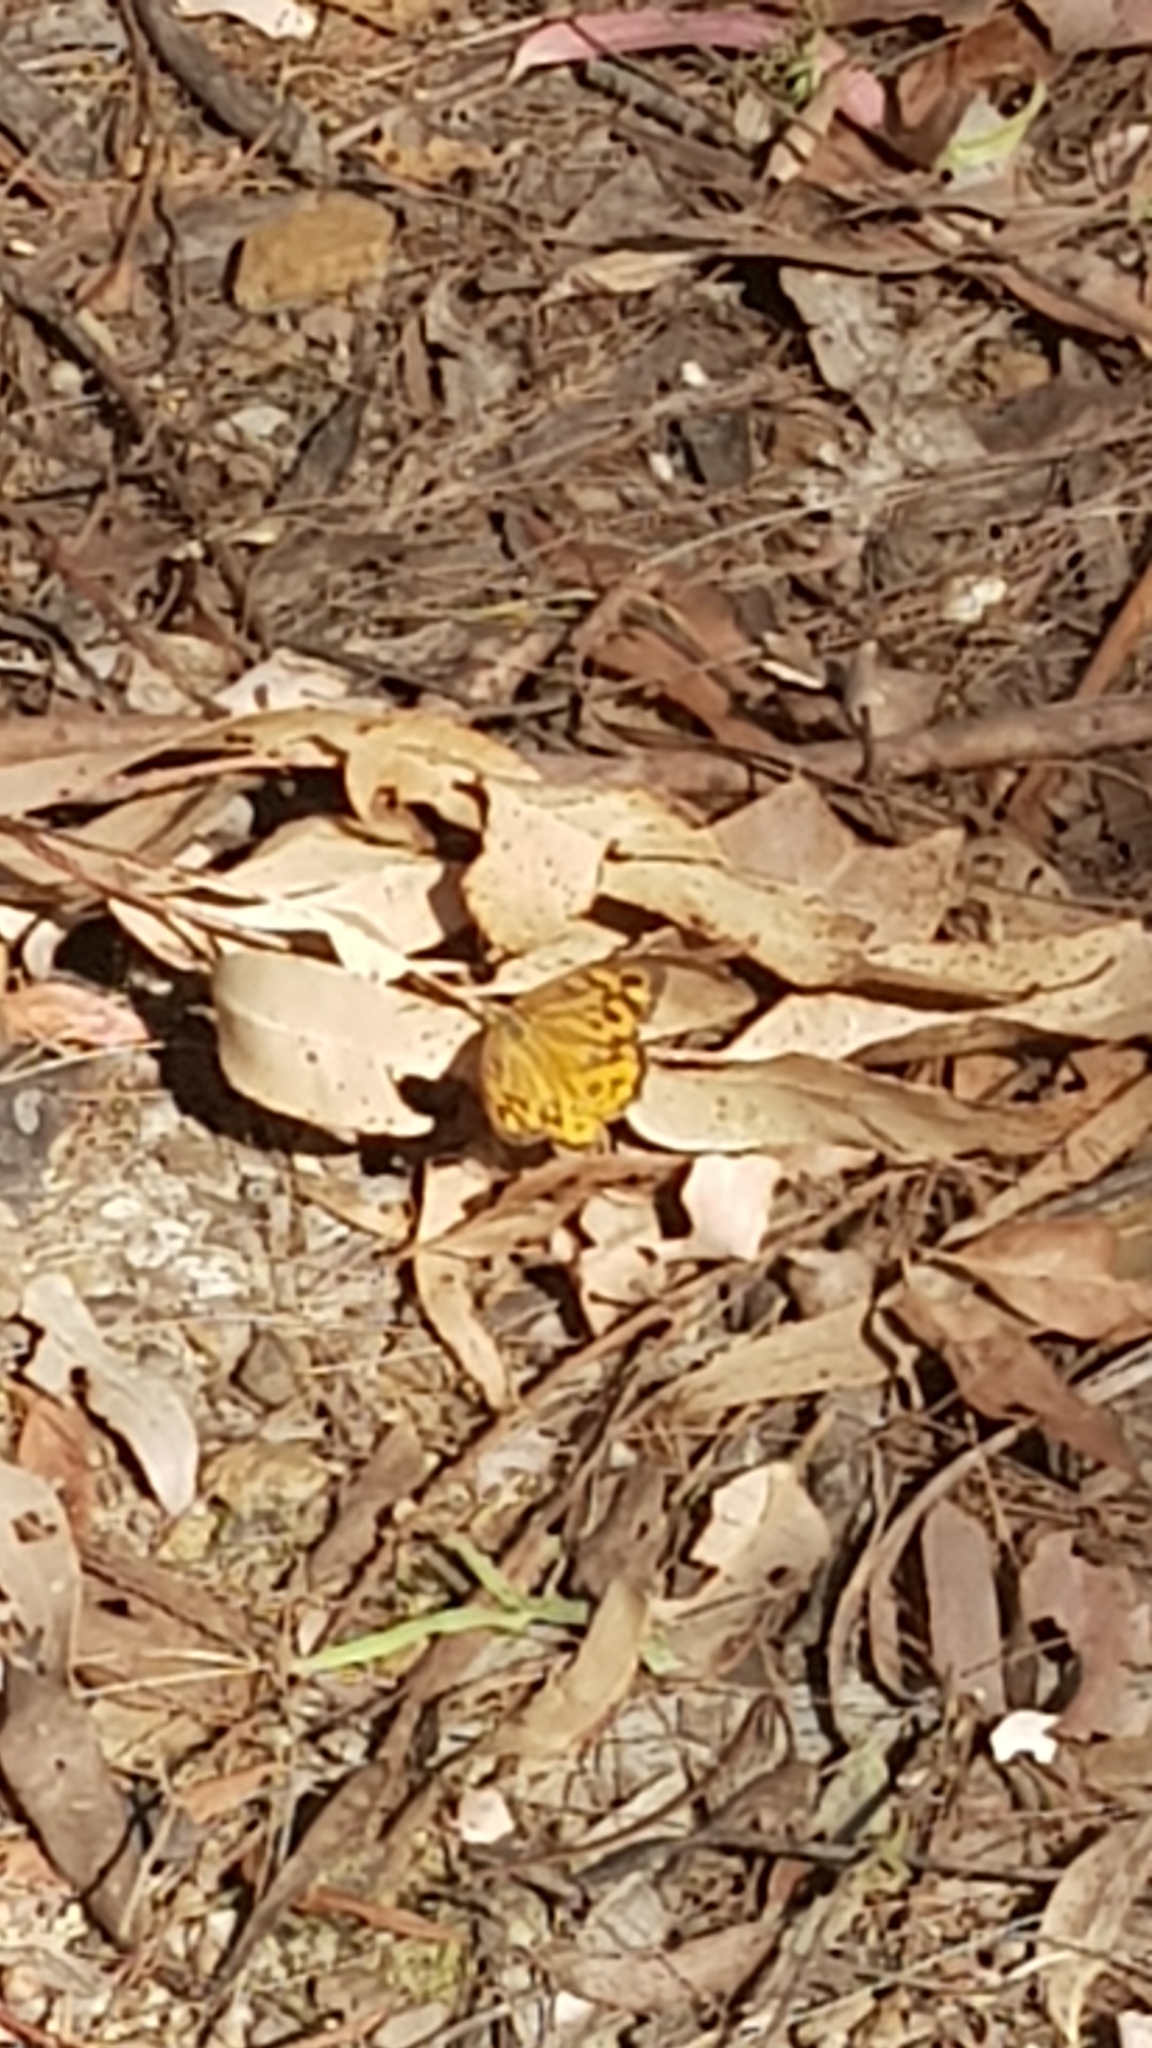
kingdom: Animalia
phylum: Arthropoda
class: Insecta
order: Lepidoptera
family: Nymphalidae
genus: Heteronympha
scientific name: Heteronympha merope
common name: Common brown
